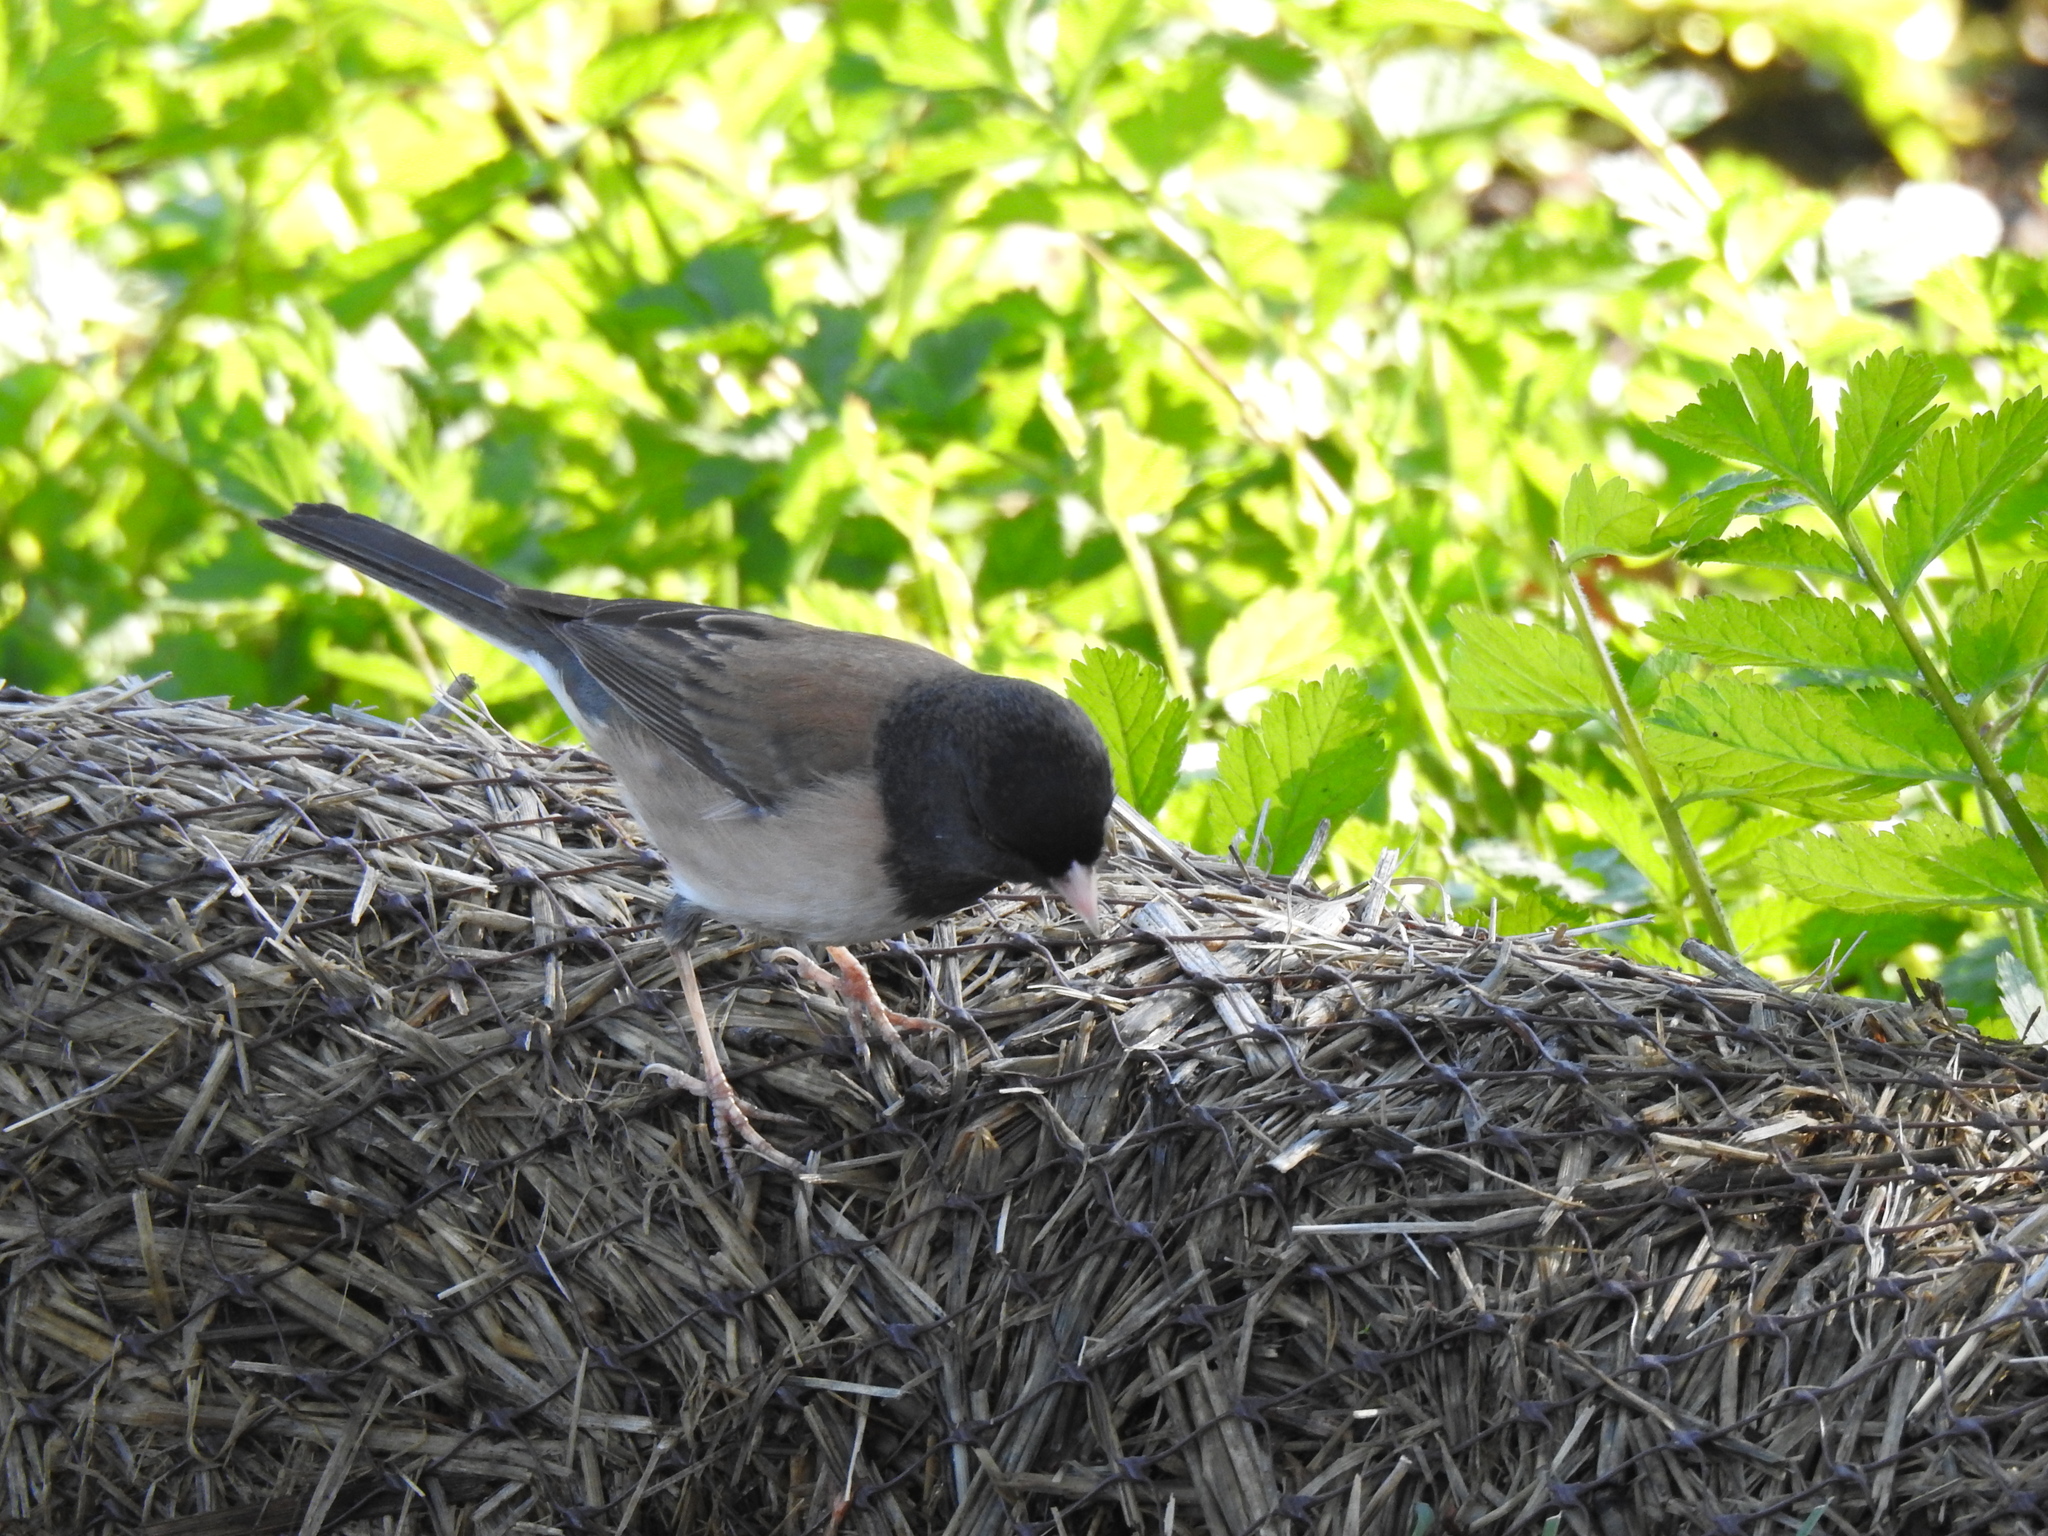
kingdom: Animalia
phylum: Chordata
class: Aves
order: Passeriformes
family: Passerellidae
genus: Junco
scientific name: Junco hyemalis
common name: Dark-eyed junco
